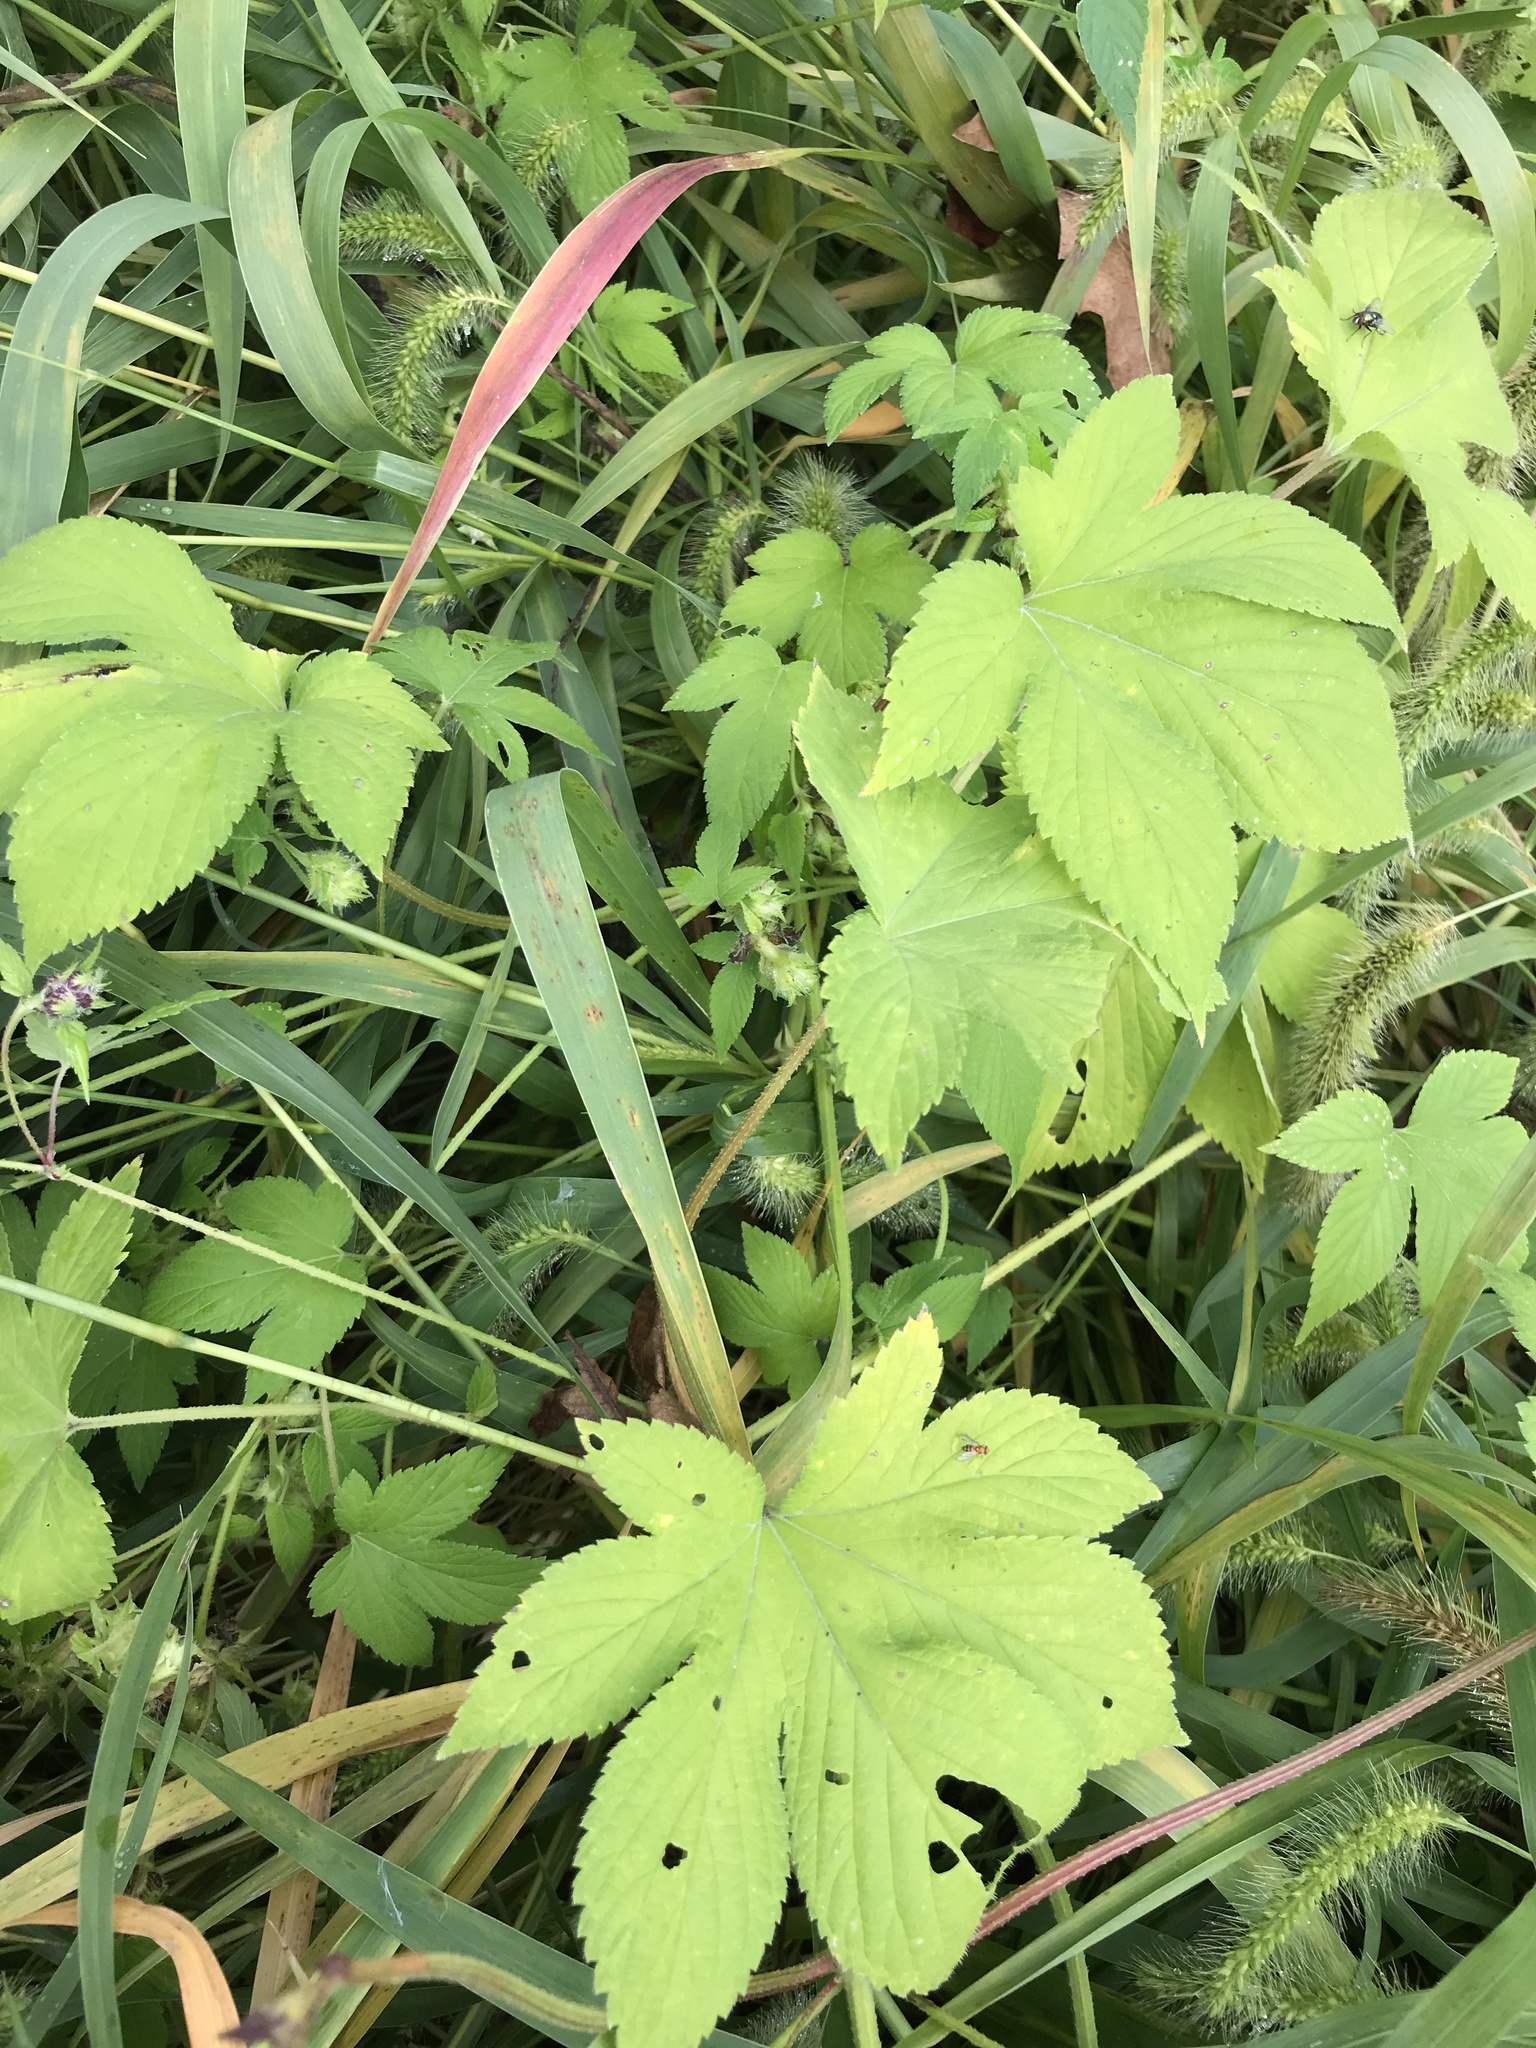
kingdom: Plantae
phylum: Tracheophyta
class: Magnoliopsida
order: Rosales
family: Cannabaceae
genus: Humulus
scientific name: Humulus scandens
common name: Japanese hop
